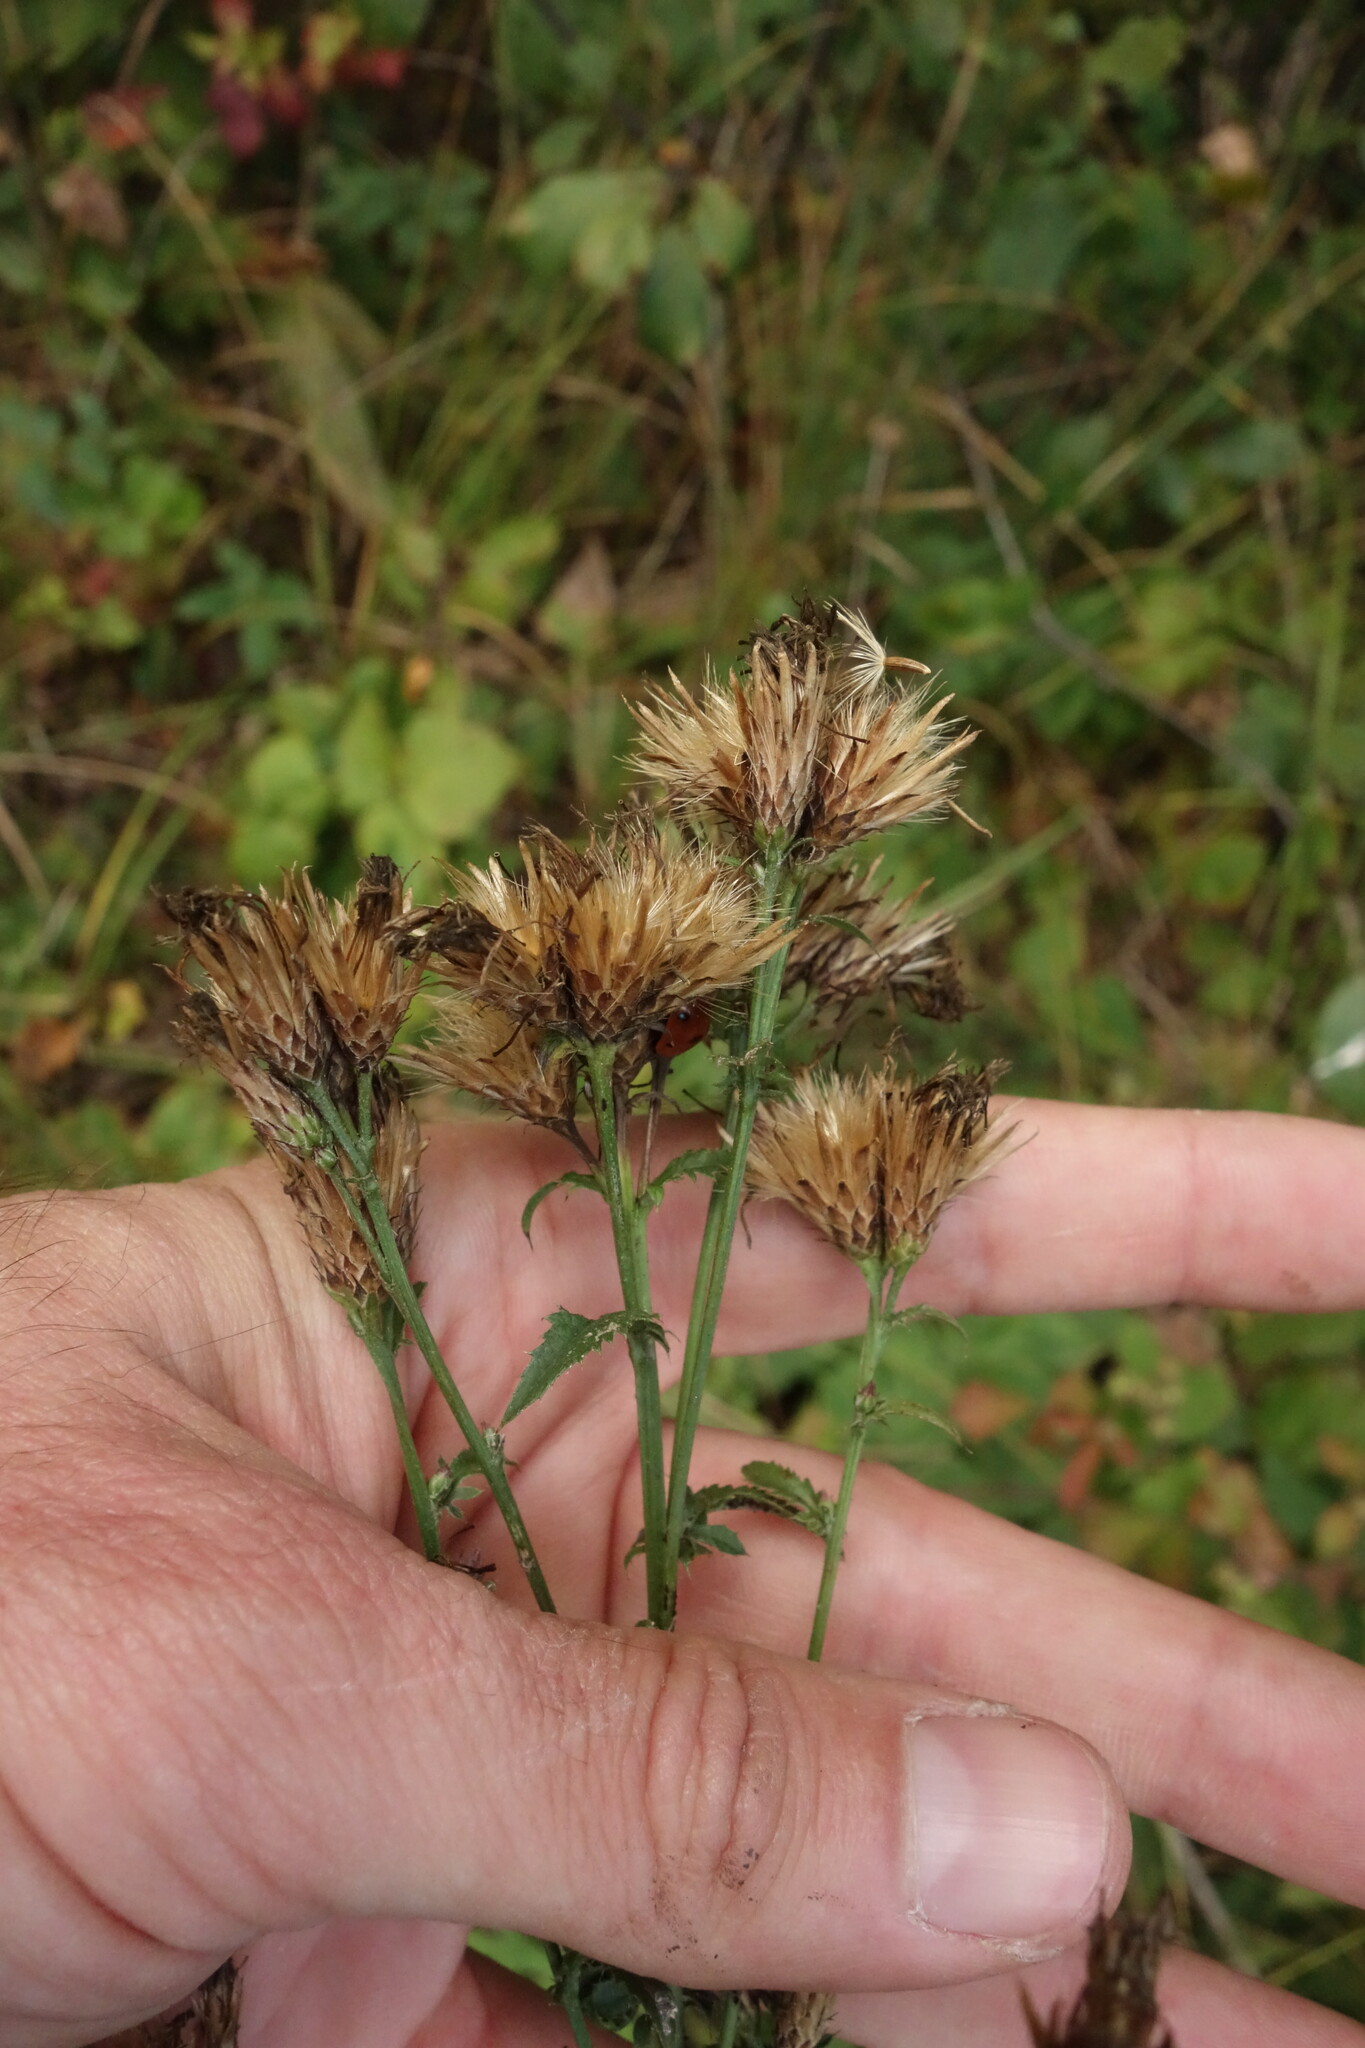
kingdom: Plantae
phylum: Tracheophyta
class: Magnoliopsida
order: Asterales
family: Asteraceae
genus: Serratula
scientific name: Serratula tinctoria
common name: Saw-wort
